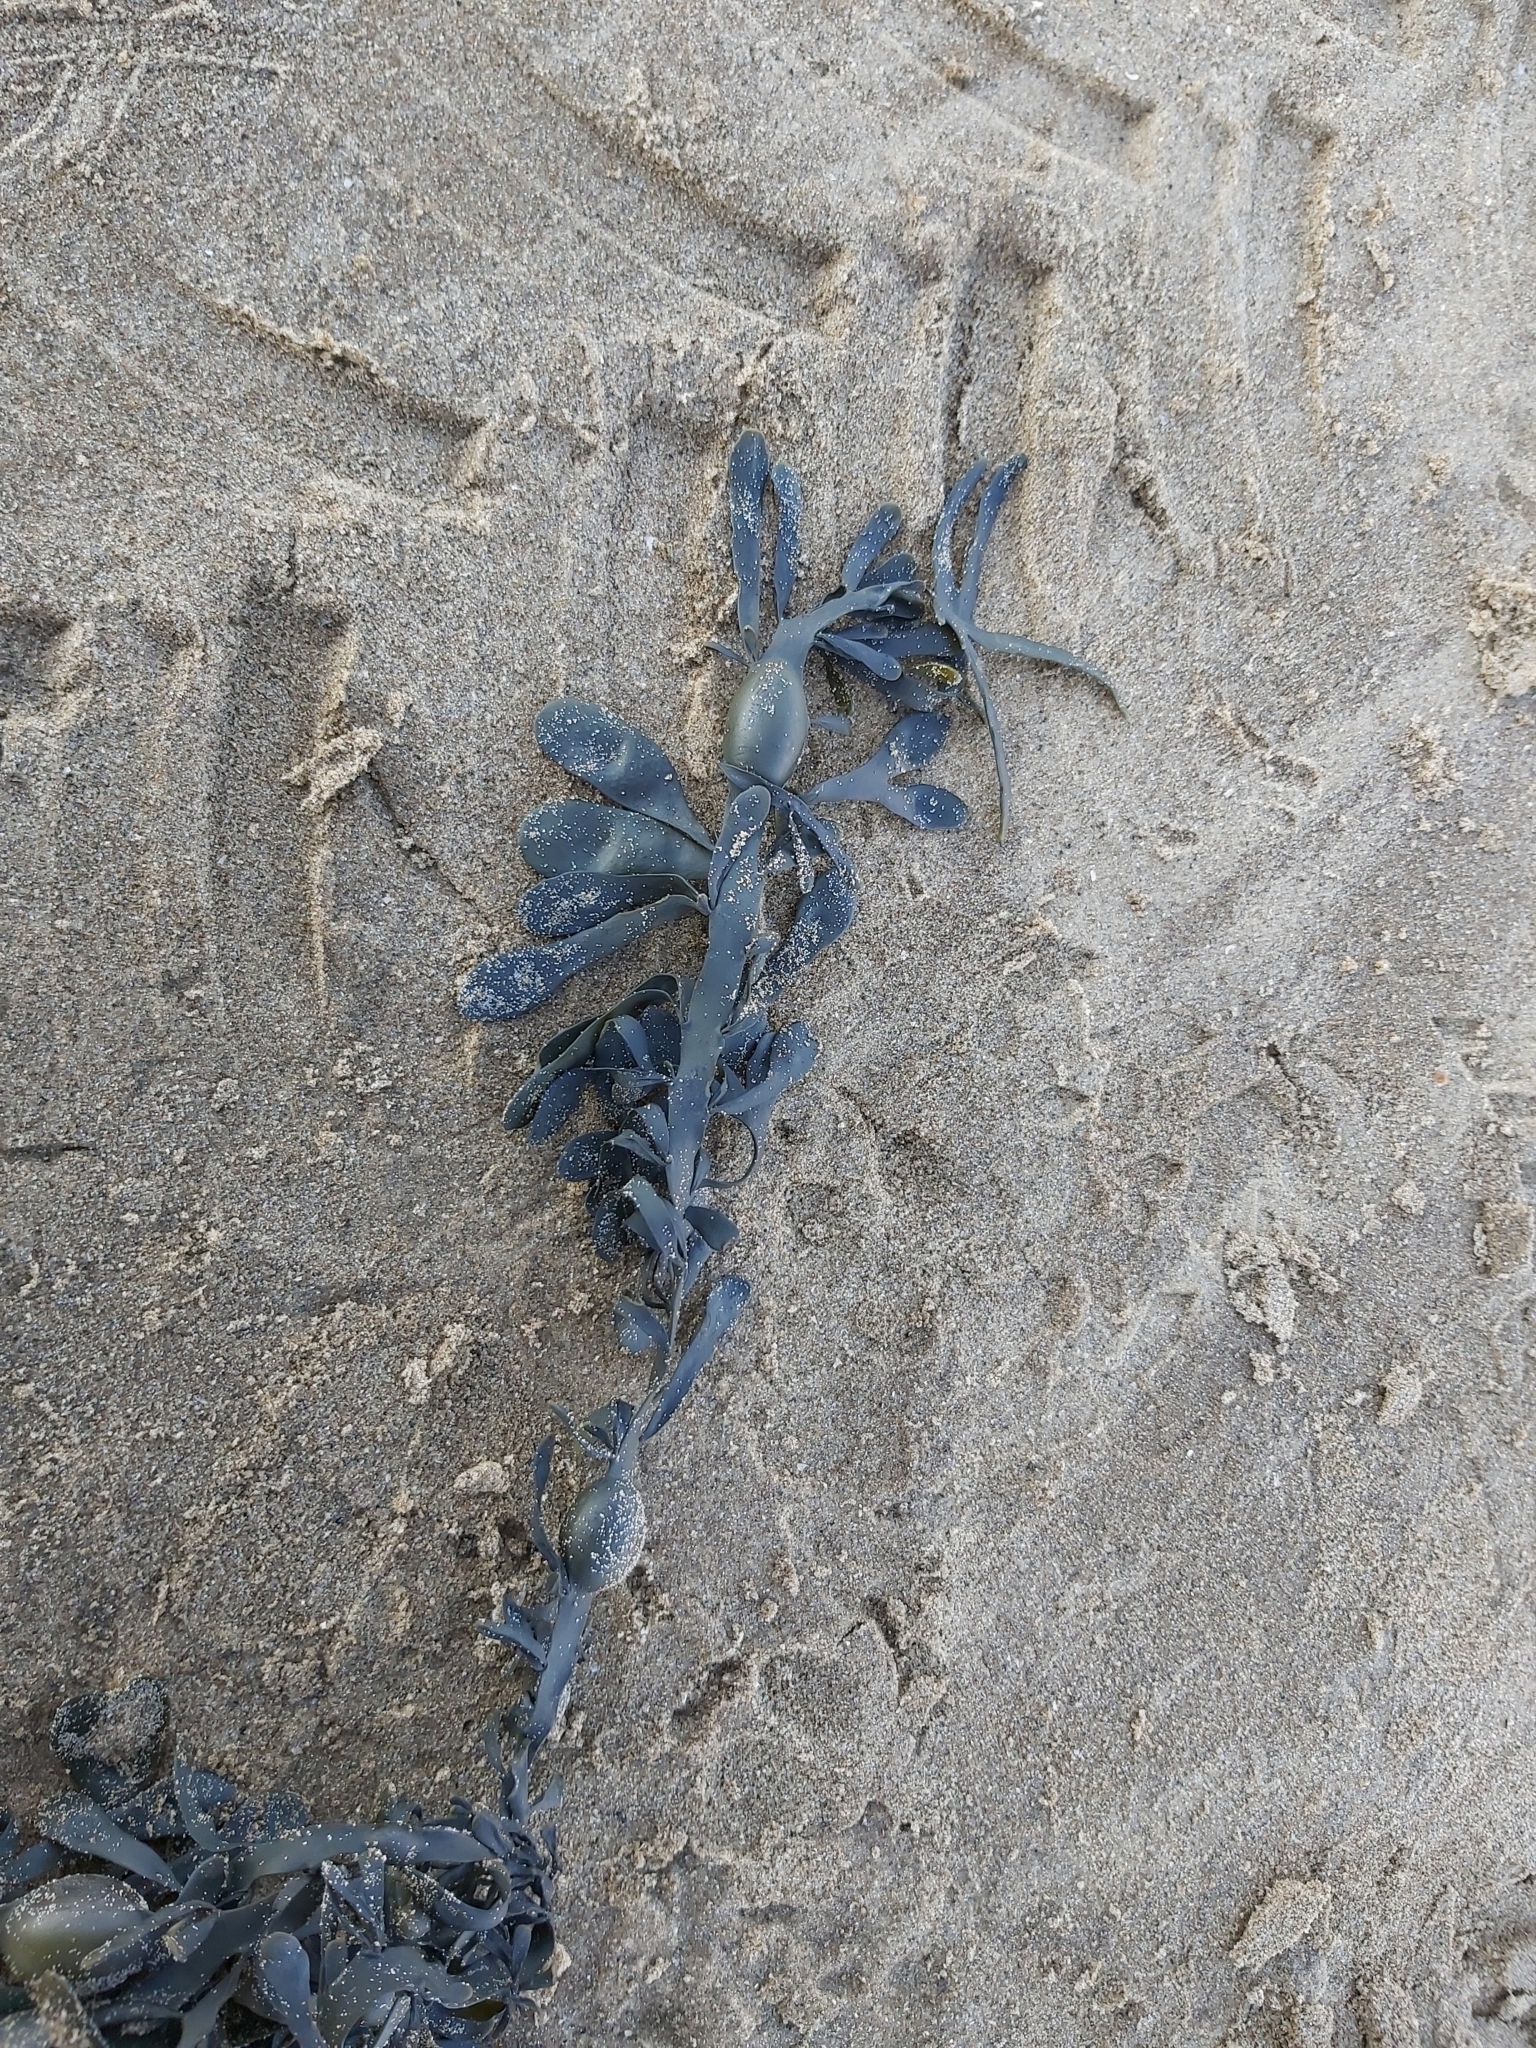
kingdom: Chromista
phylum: Ochrophyta
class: Phaeophyceae
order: Fucales
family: Fucaceae
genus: Ascophyllum
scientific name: Ascophyllum nodosum
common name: Knotted wrack
